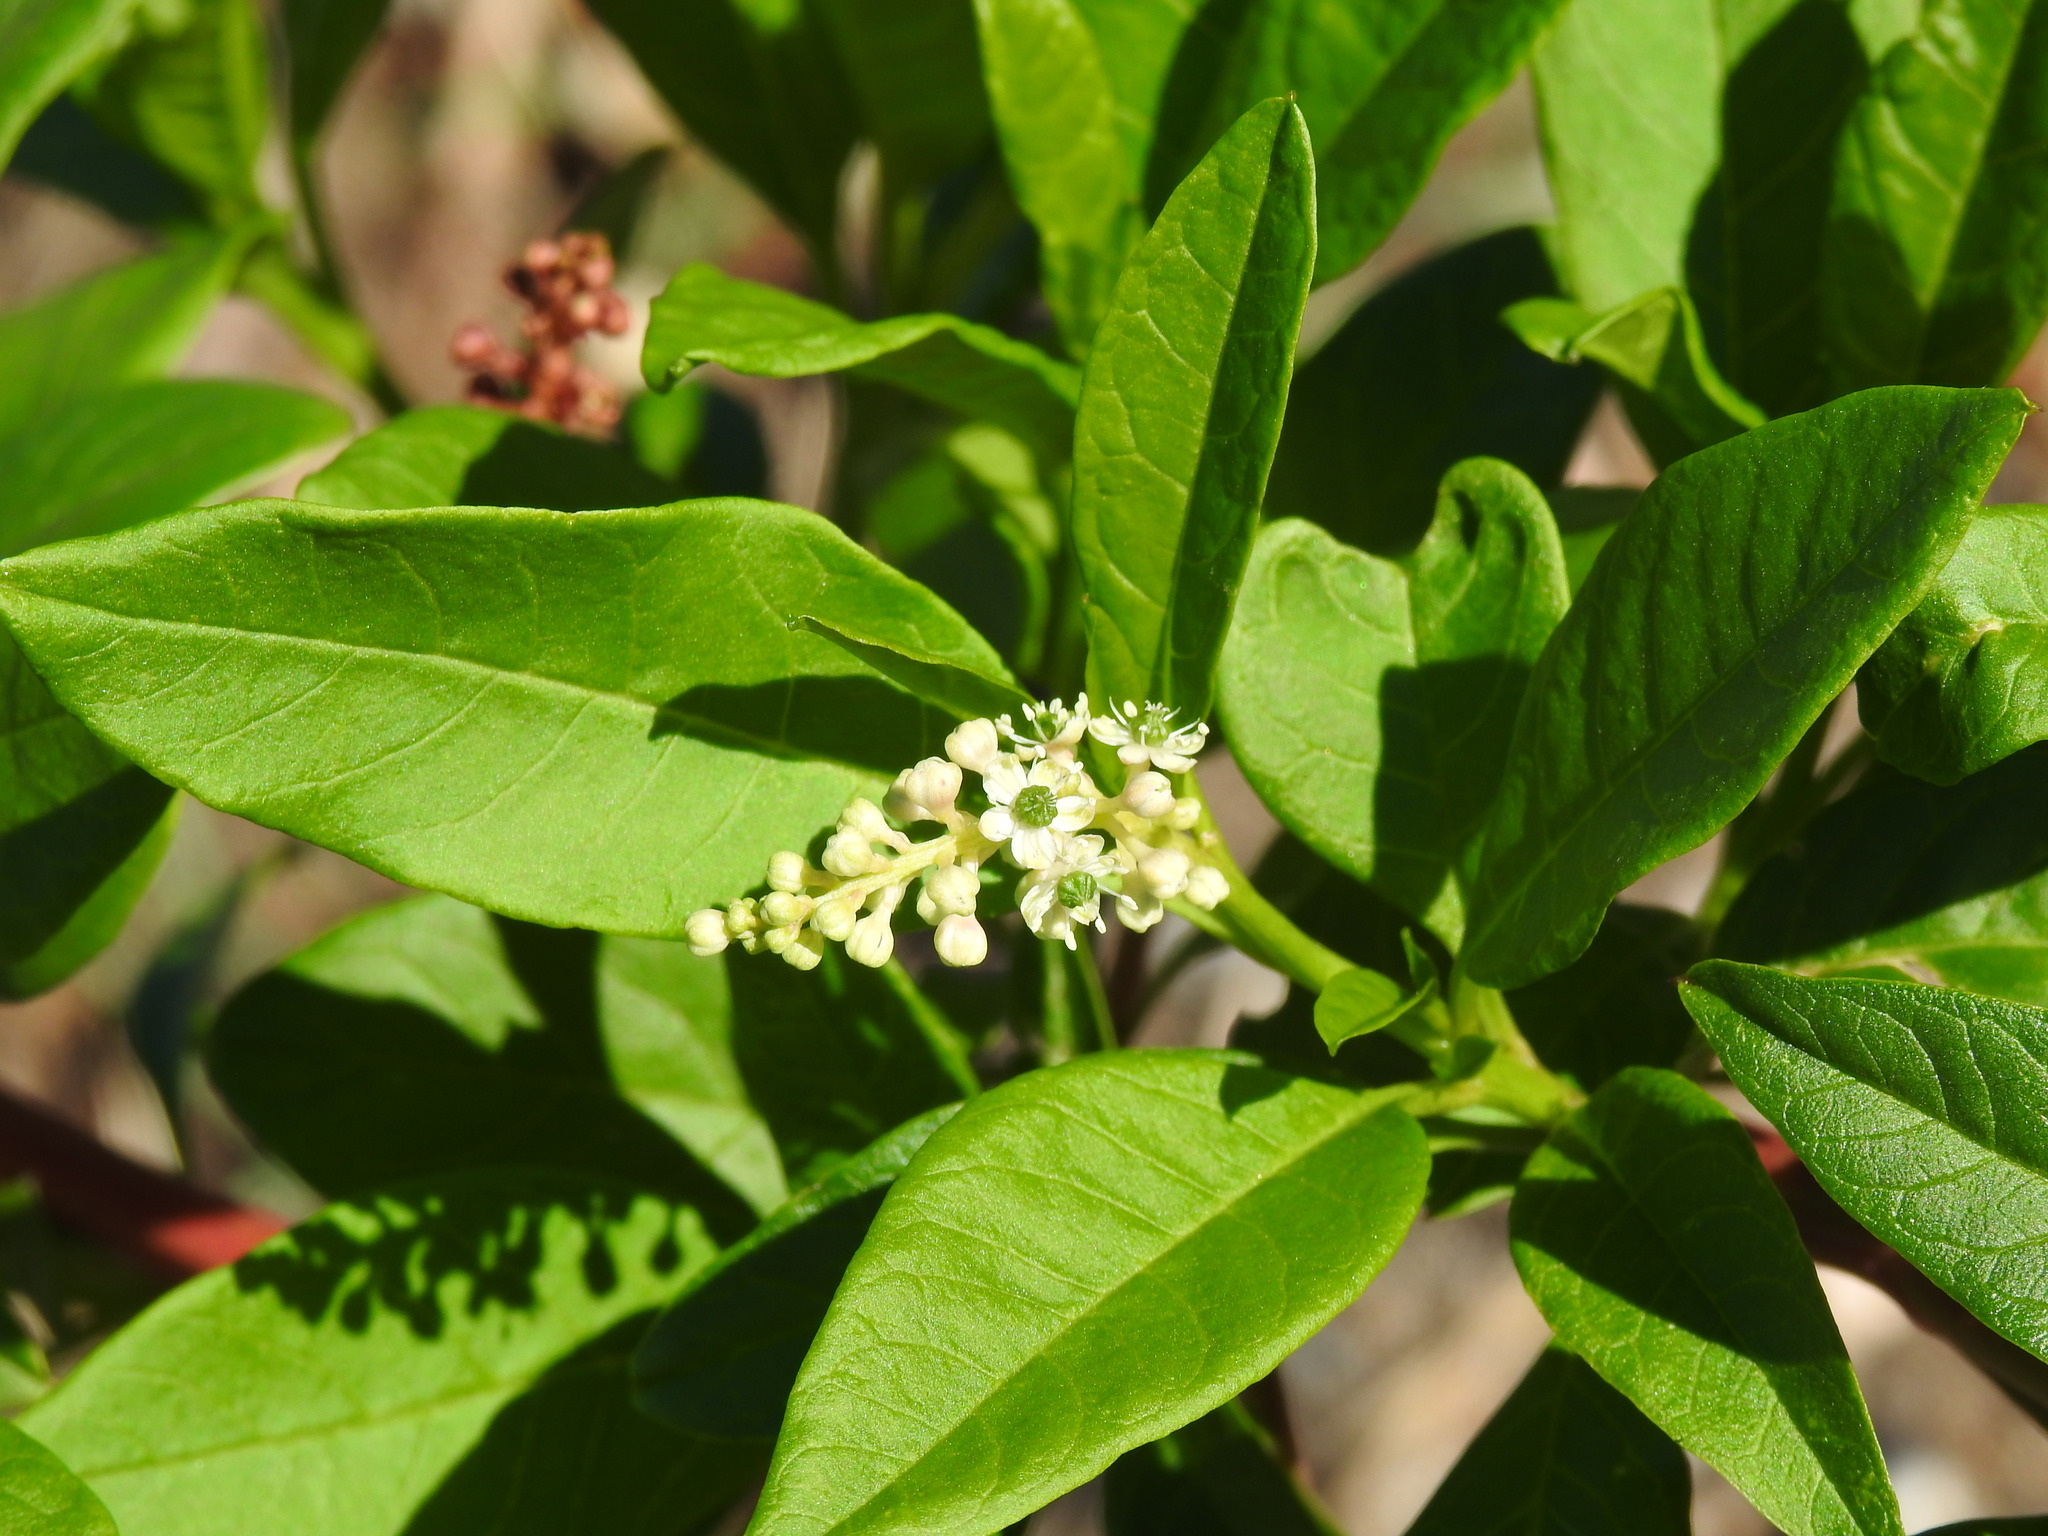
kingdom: Plantae
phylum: Tracheophyta
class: Magnoliopsida
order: Caryophyllales
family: Phytolaccaceae
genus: Phytolacca
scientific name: Phytolacca americana
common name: American pokeweed
